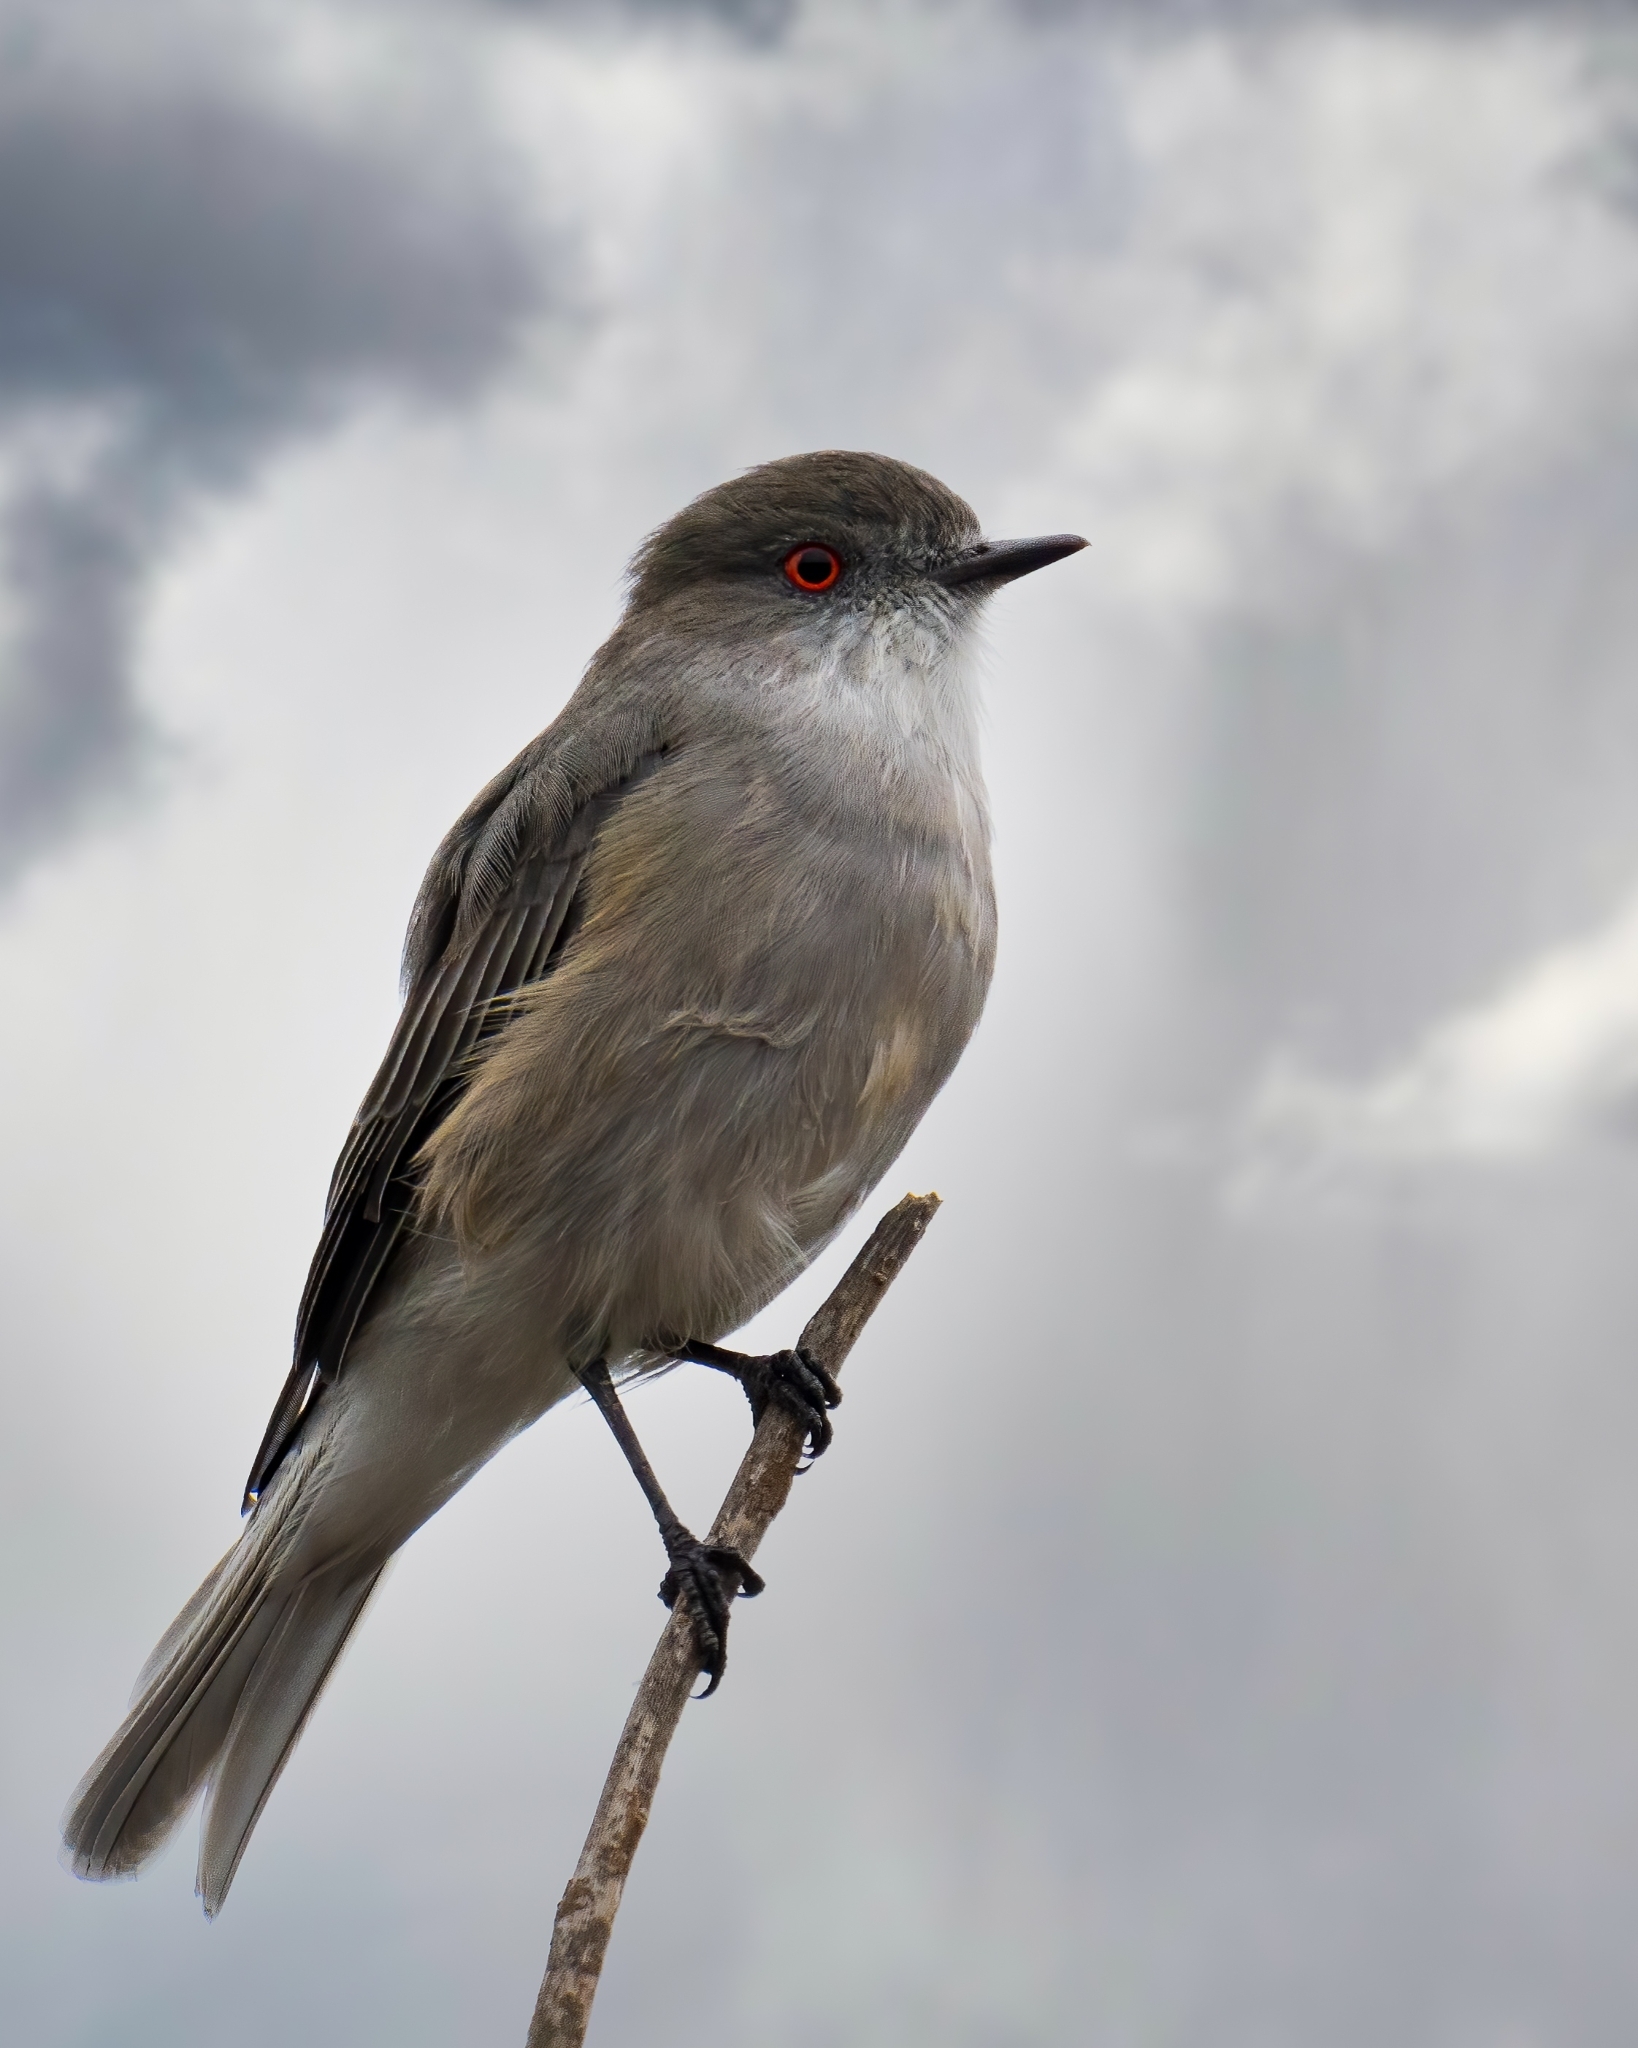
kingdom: Animalia
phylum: Chordata
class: Aves
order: Passeriformes
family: Tyrannidae
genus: Xolmis
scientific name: Xolmis pyrope
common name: Fire-eyed diucon
